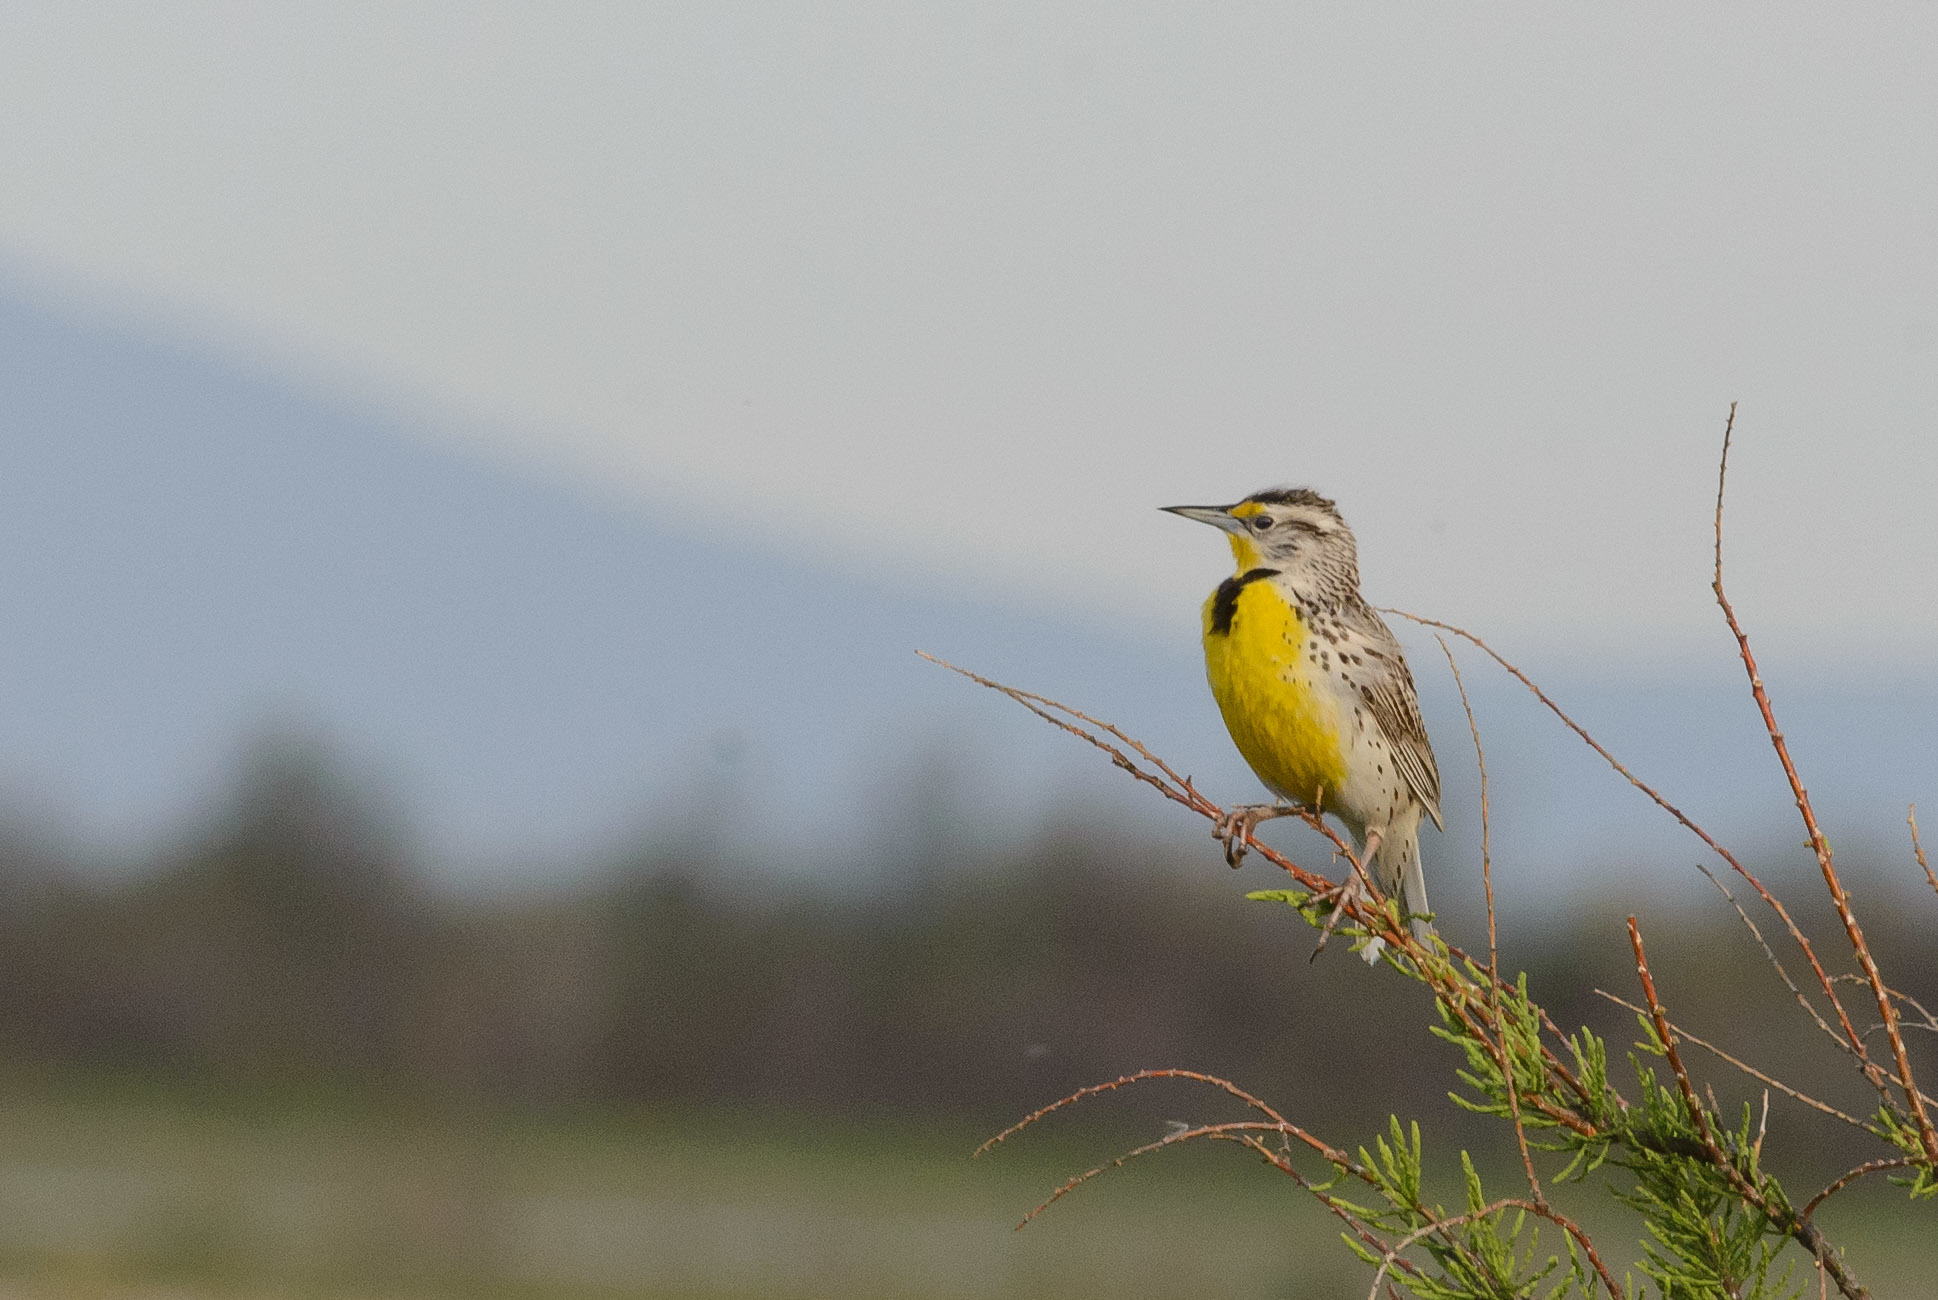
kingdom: Animalia
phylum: Chordata
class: Aves
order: Passeriformes
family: Icteridae
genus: Sturnella
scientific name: Sturnella neglecta
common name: Western meadowlark
